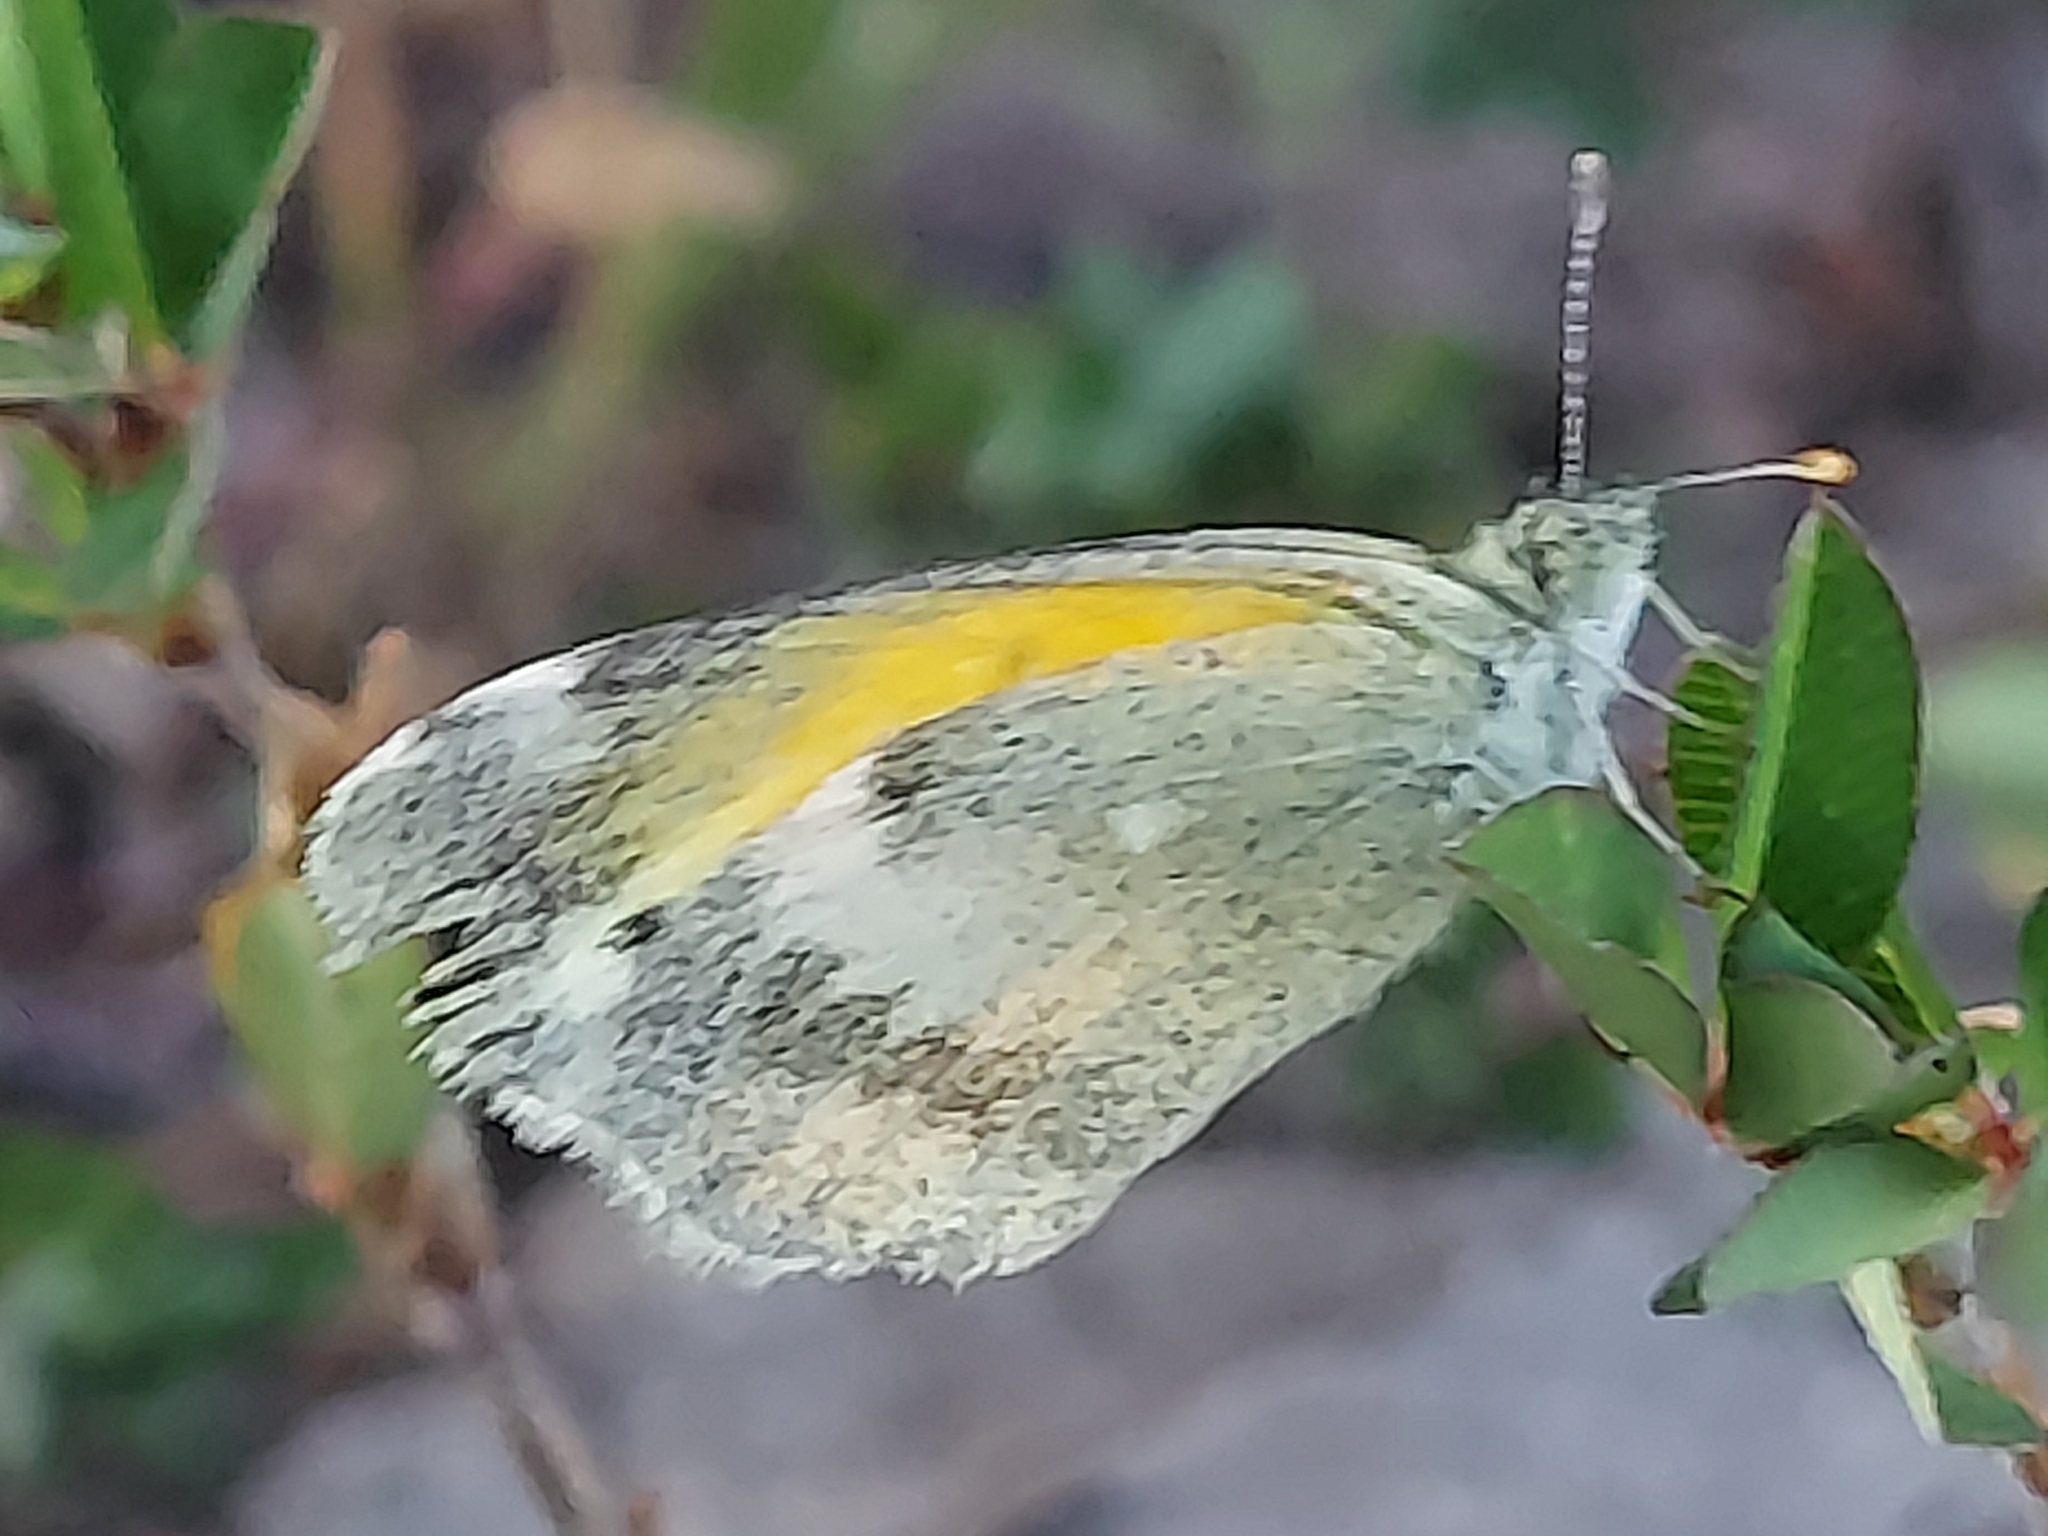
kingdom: Animalia
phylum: Arthropoda
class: Insecta
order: Lepidoptera
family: Pieridae
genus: Nathalis
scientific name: Nathalis iole
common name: Dainty sulphur
